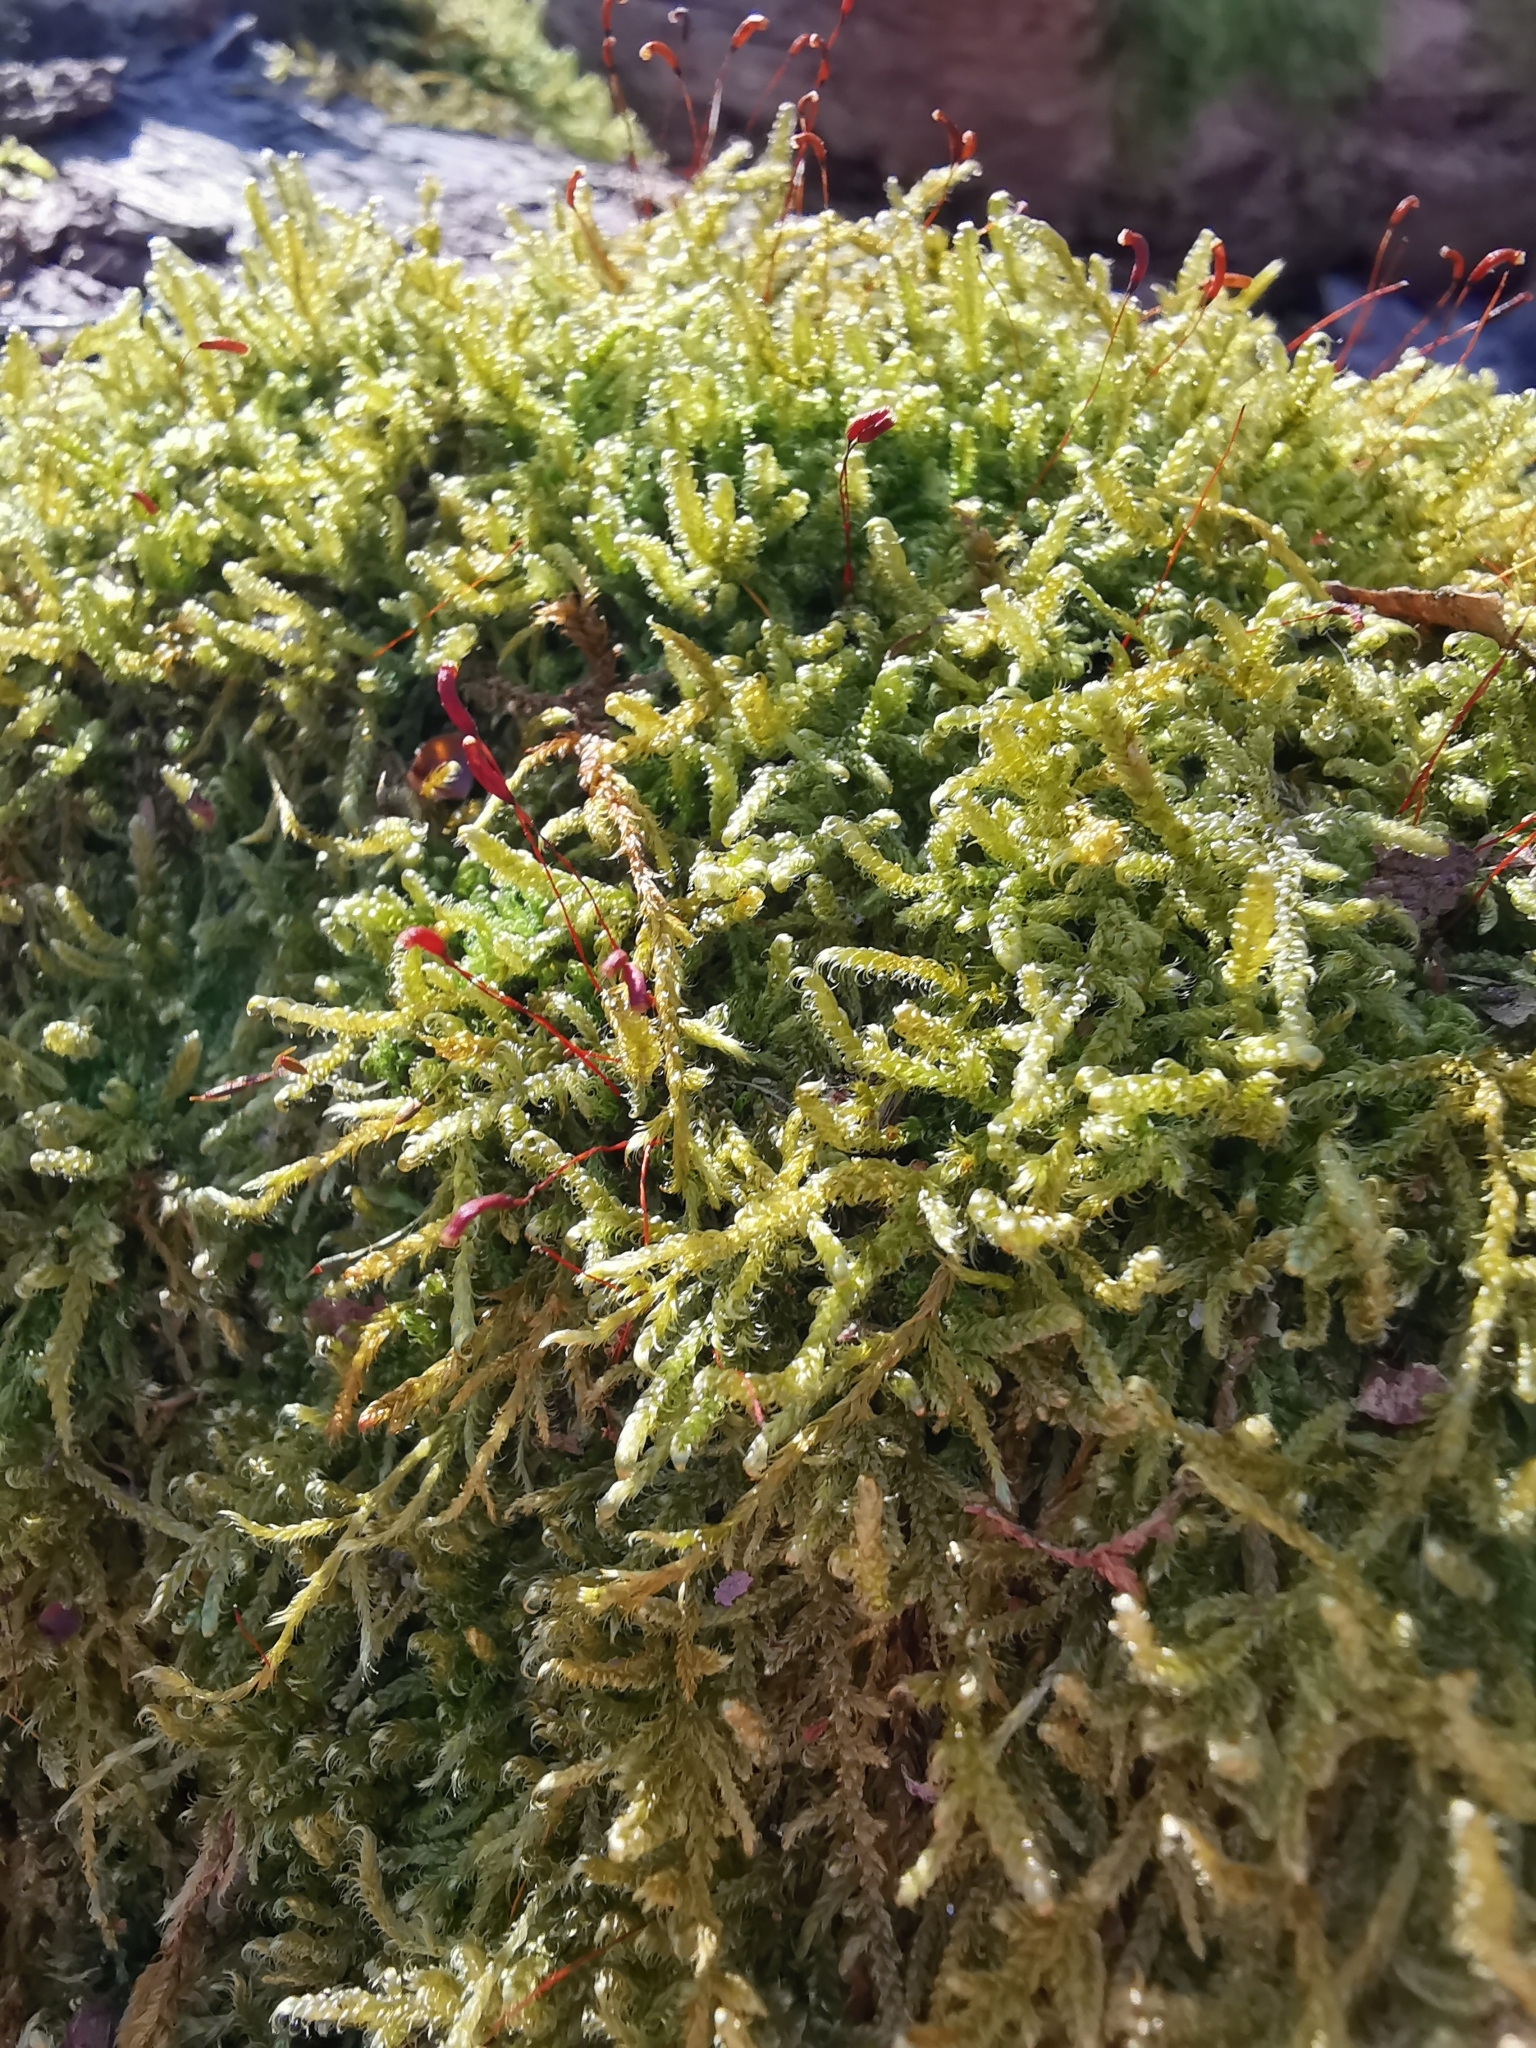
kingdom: Plantae
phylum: Bryophyta
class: Bryopsida
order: Hypnales
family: Hypnaceae
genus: Hypnum
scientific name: Hypnum cupressiforme
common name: Cypress-leaved plait-moss
